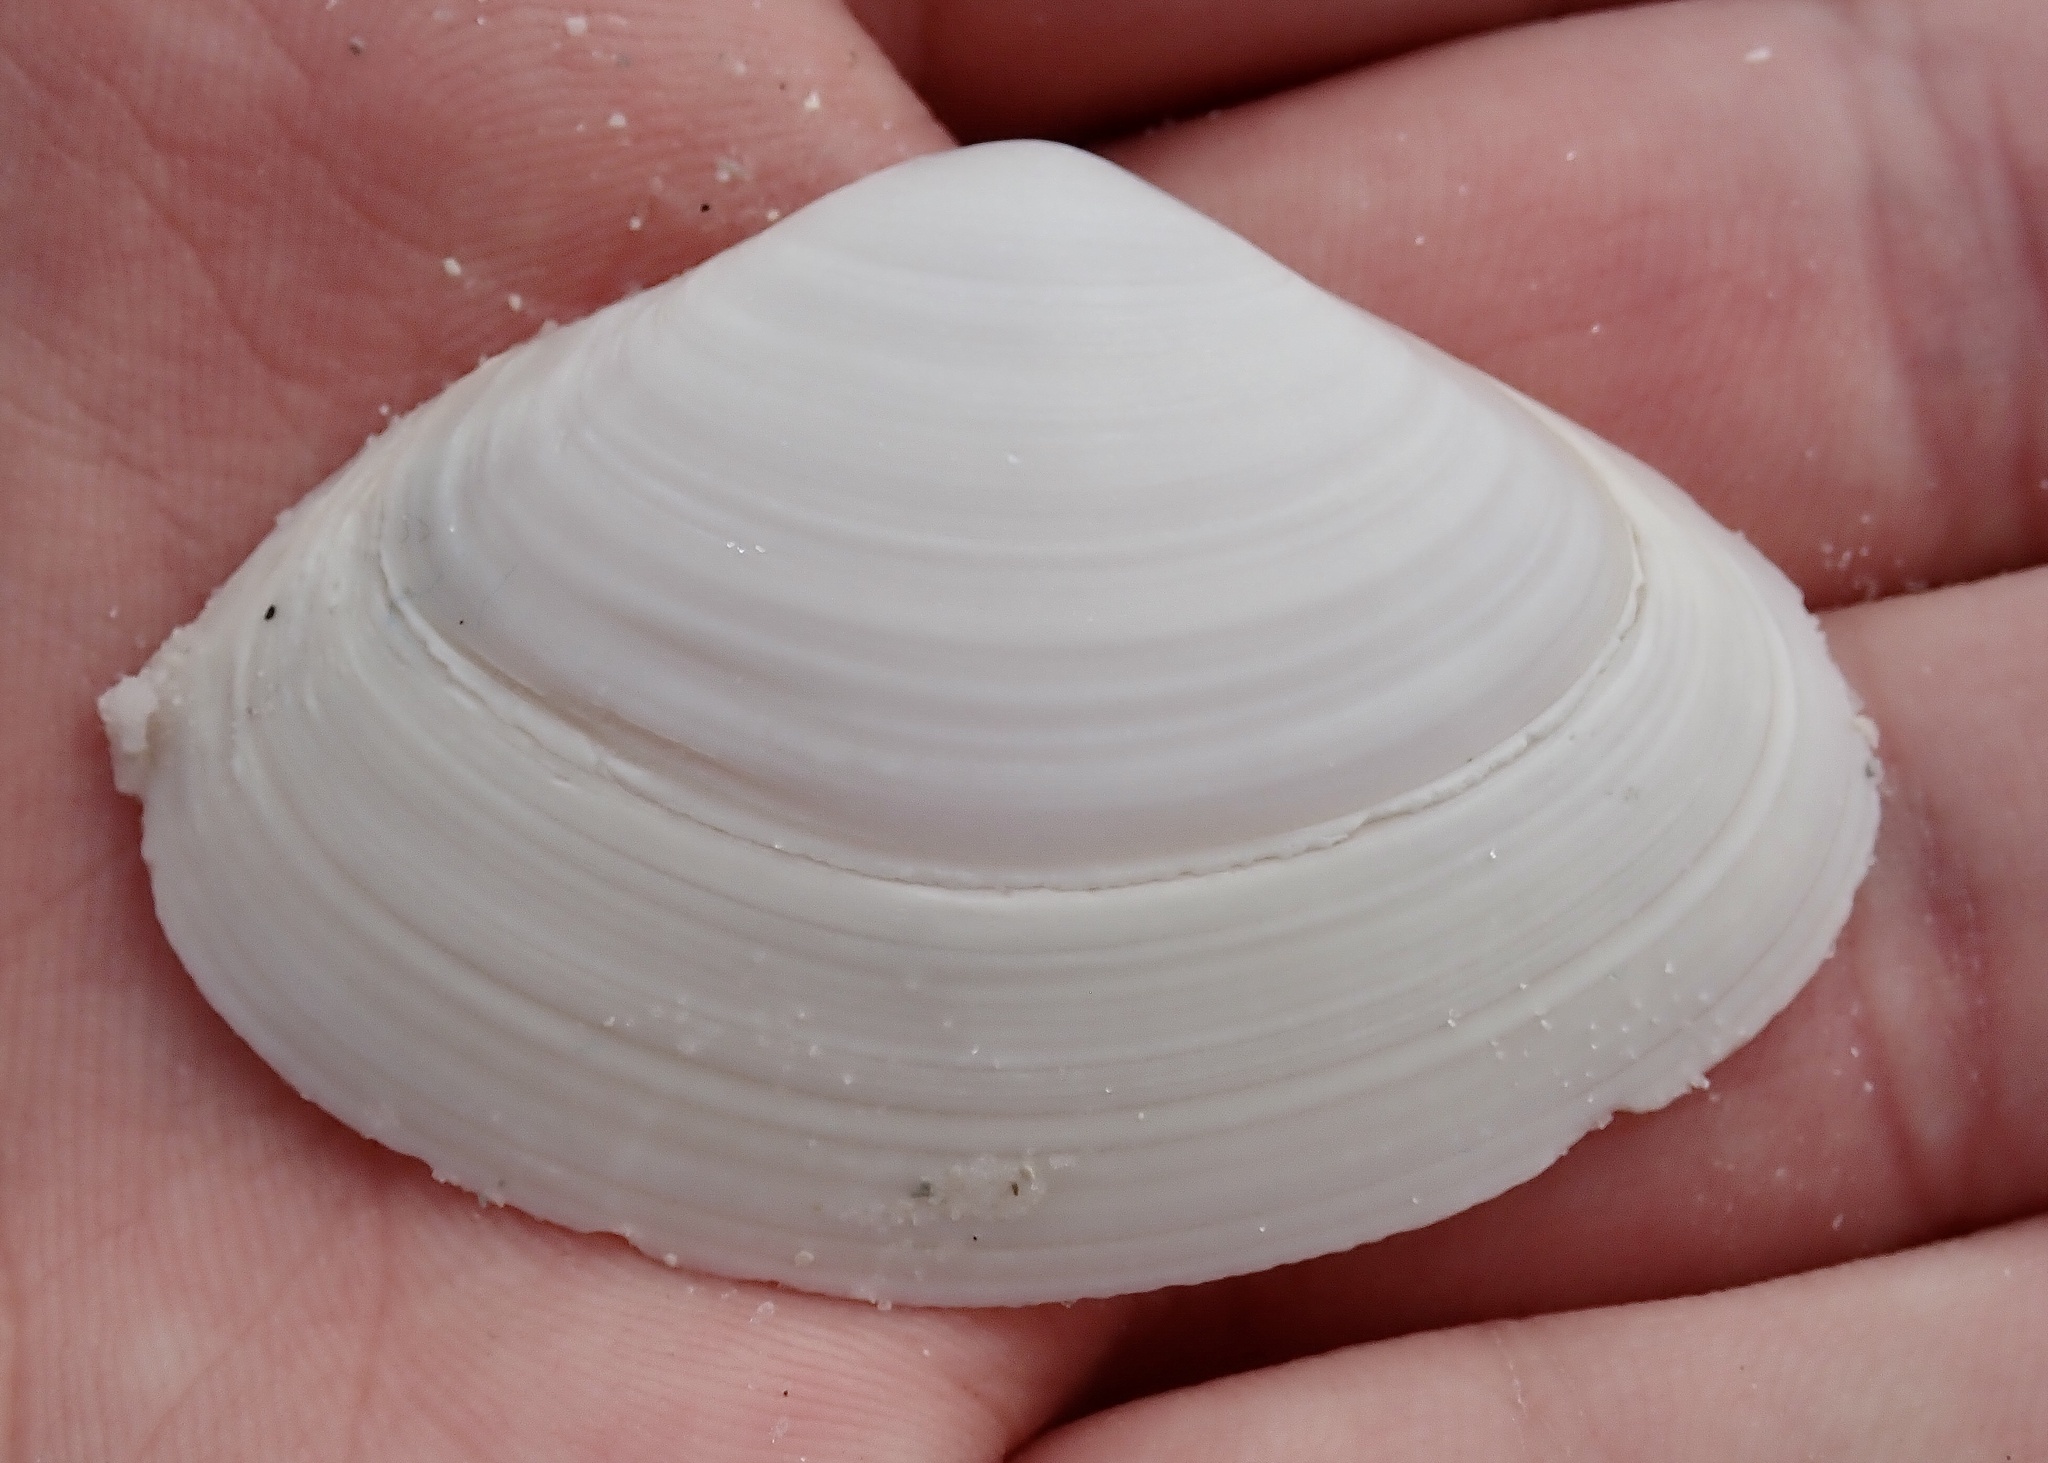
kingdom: Animalia
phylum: Mollusca
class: Bivalvia
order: Venerida
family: Mactridae
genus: Spisula
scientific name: Spisula raveneli
